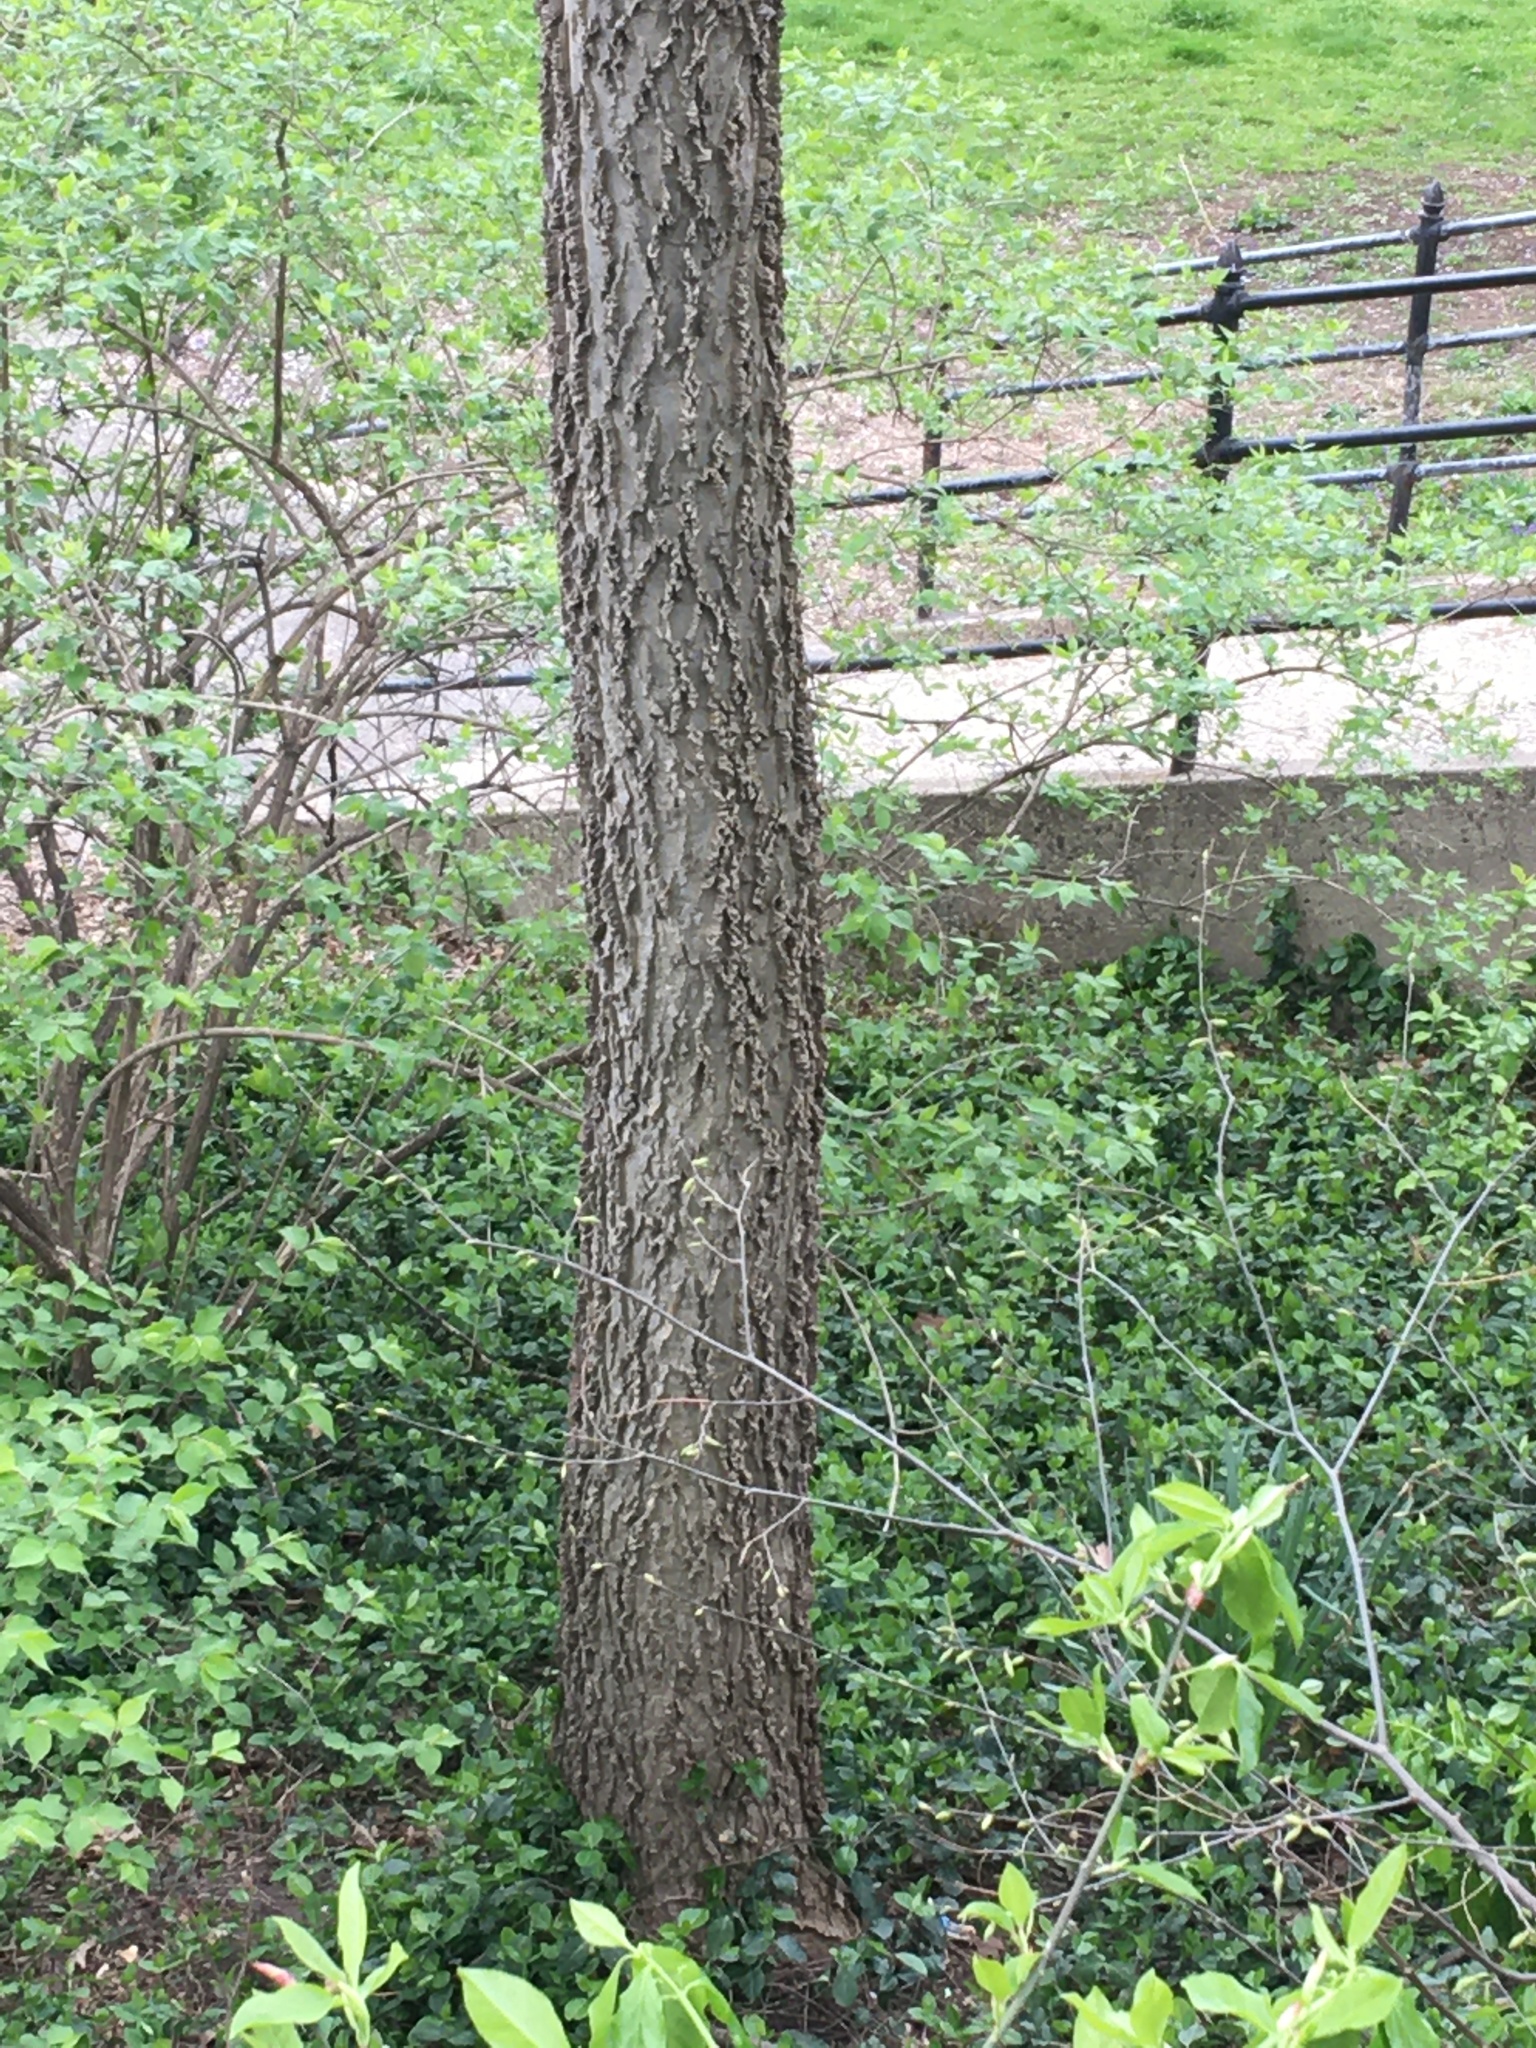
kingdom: Plantae
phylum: Tracheophyta
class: Magnoliopsida
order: Rosales
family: Cannabaceae
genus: Celtis
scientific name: Celtis occidentalis
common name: Common hackberry
